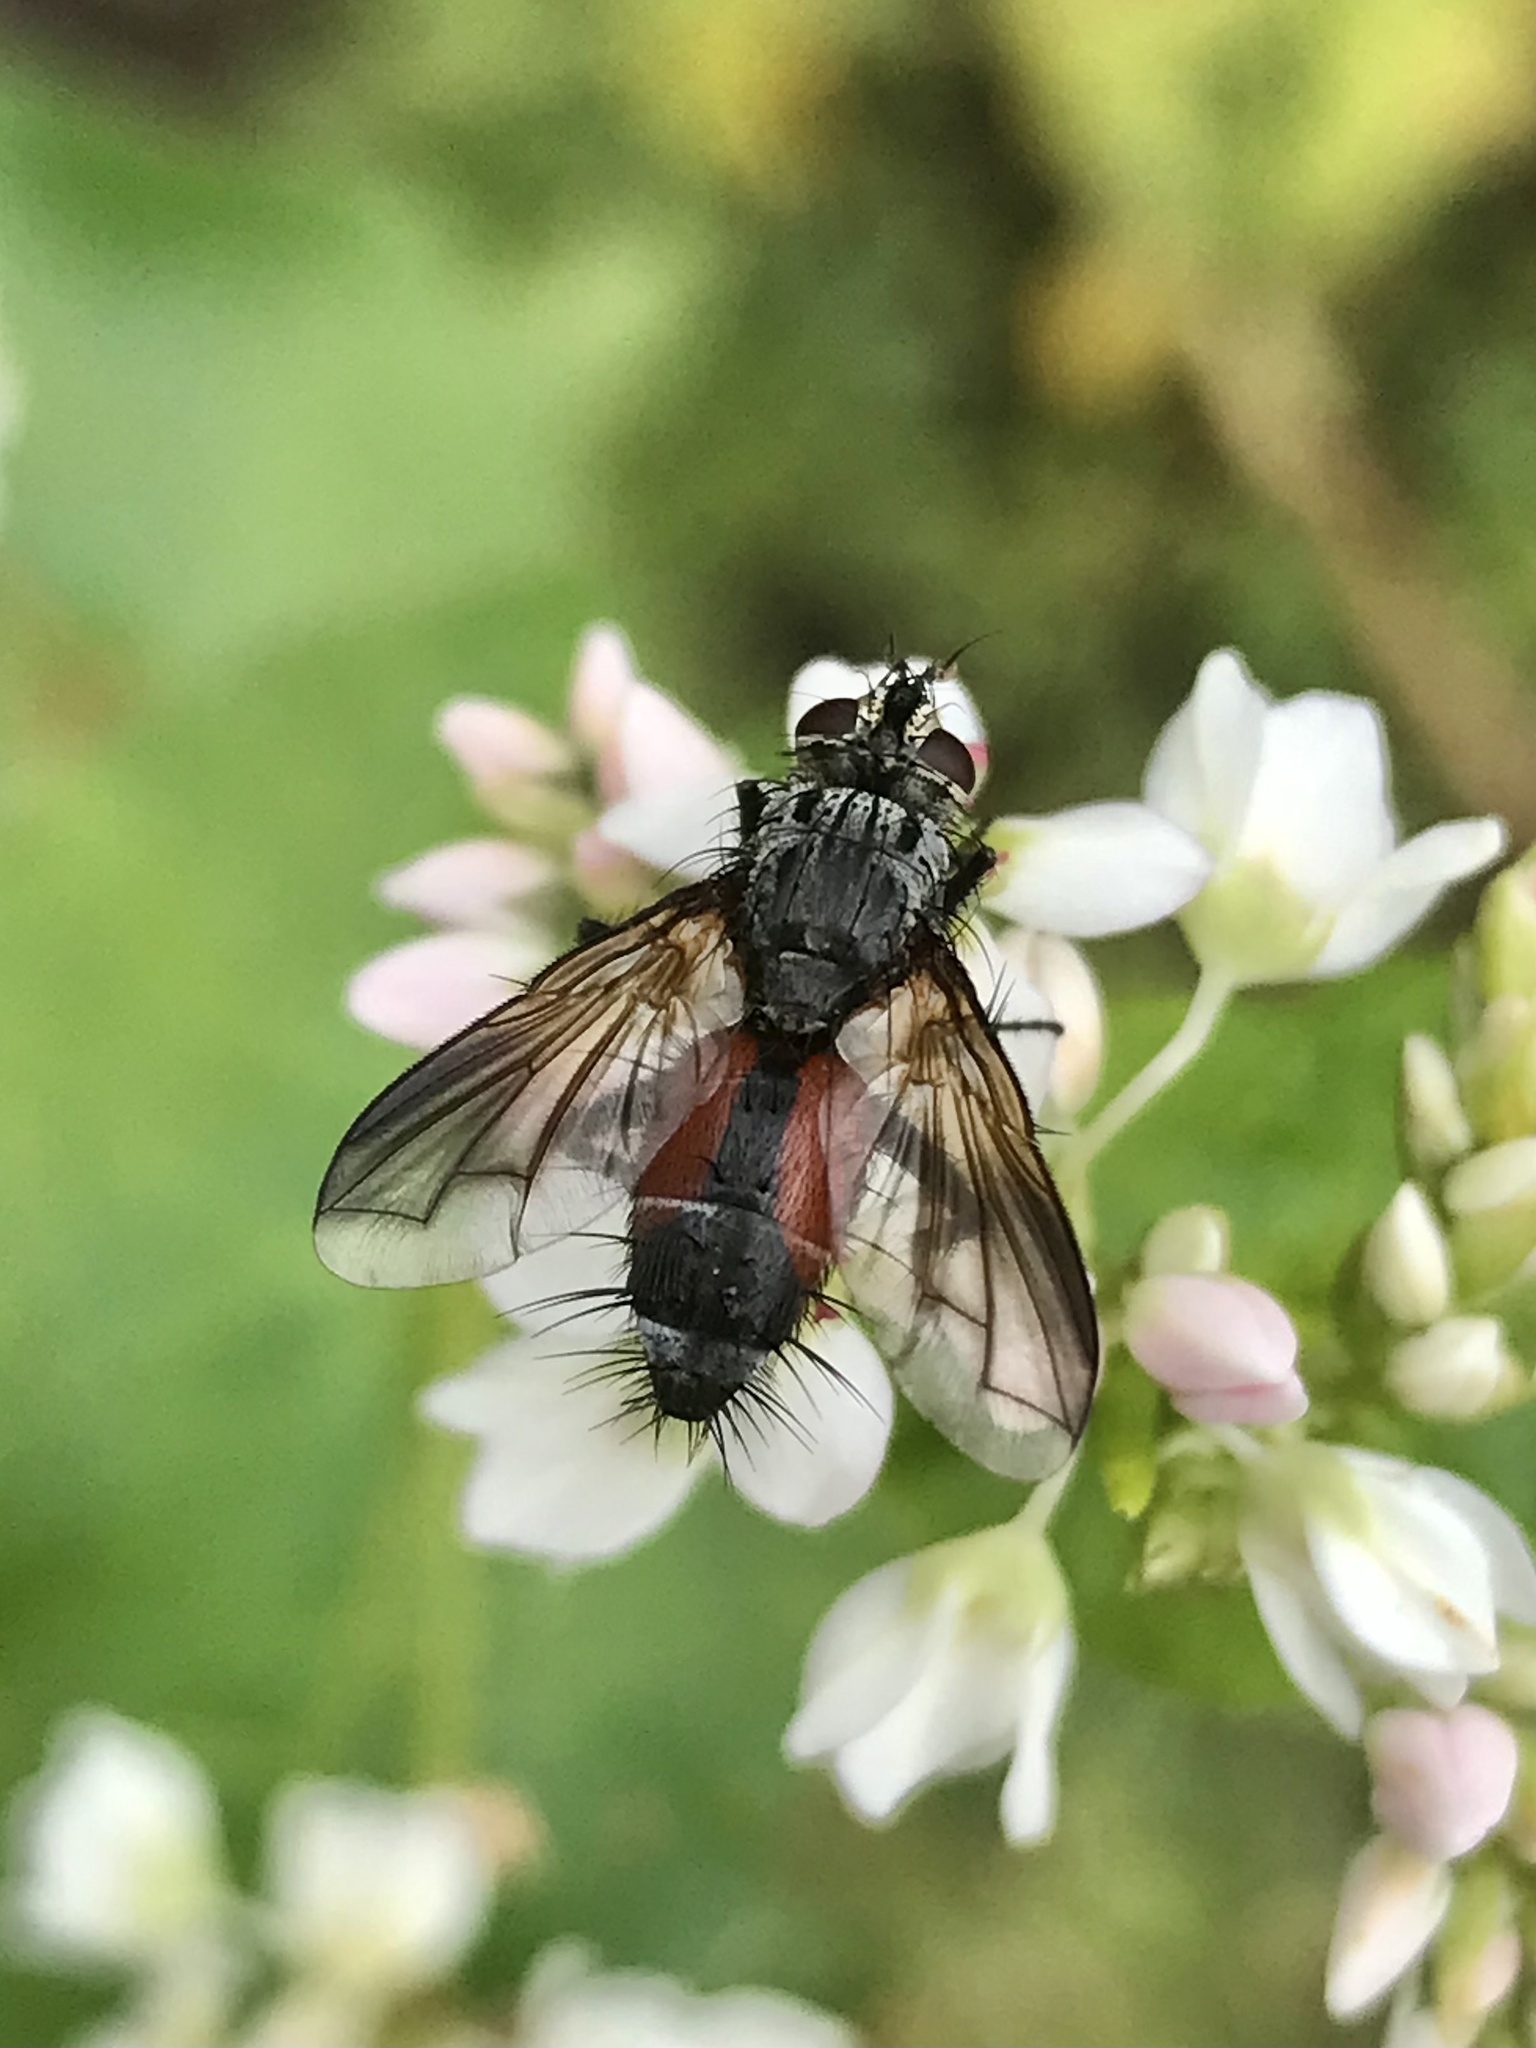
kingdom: Animalia
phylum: Arthropoda
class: Insecta
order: Diptera
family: Tachinidae
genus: Eriothrix
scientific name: Eriothrix rufomaculatus
